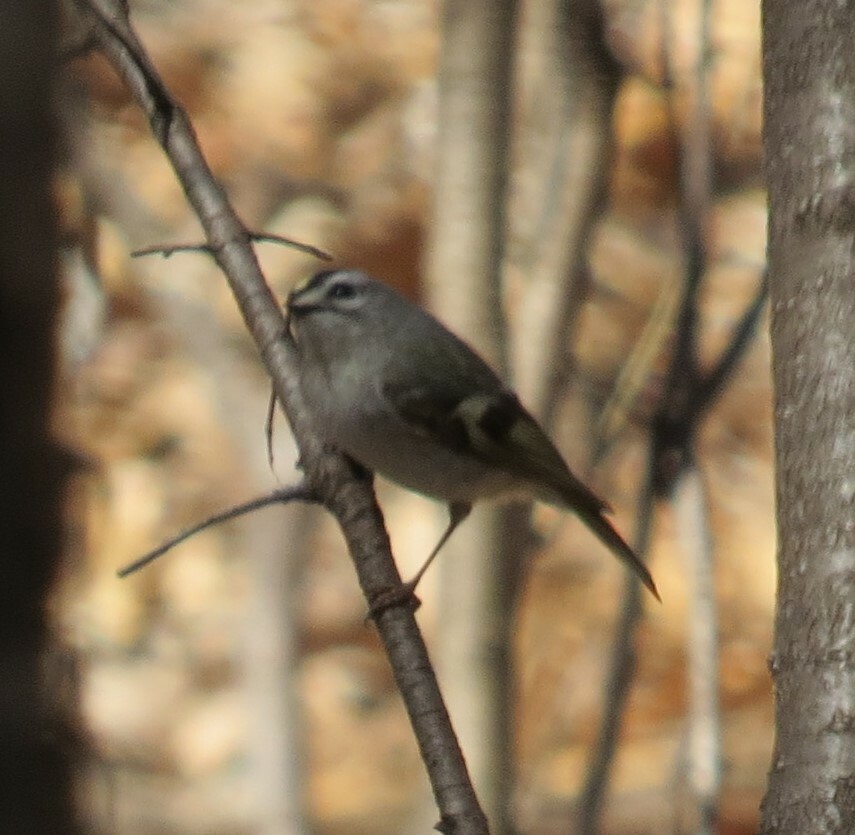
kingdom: Animalia
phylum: Chordata
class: Aves
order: Passeriformes
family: Regulidae
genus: Regulus
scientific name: Regulus satrapa
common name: Golden-crowned kinglet
